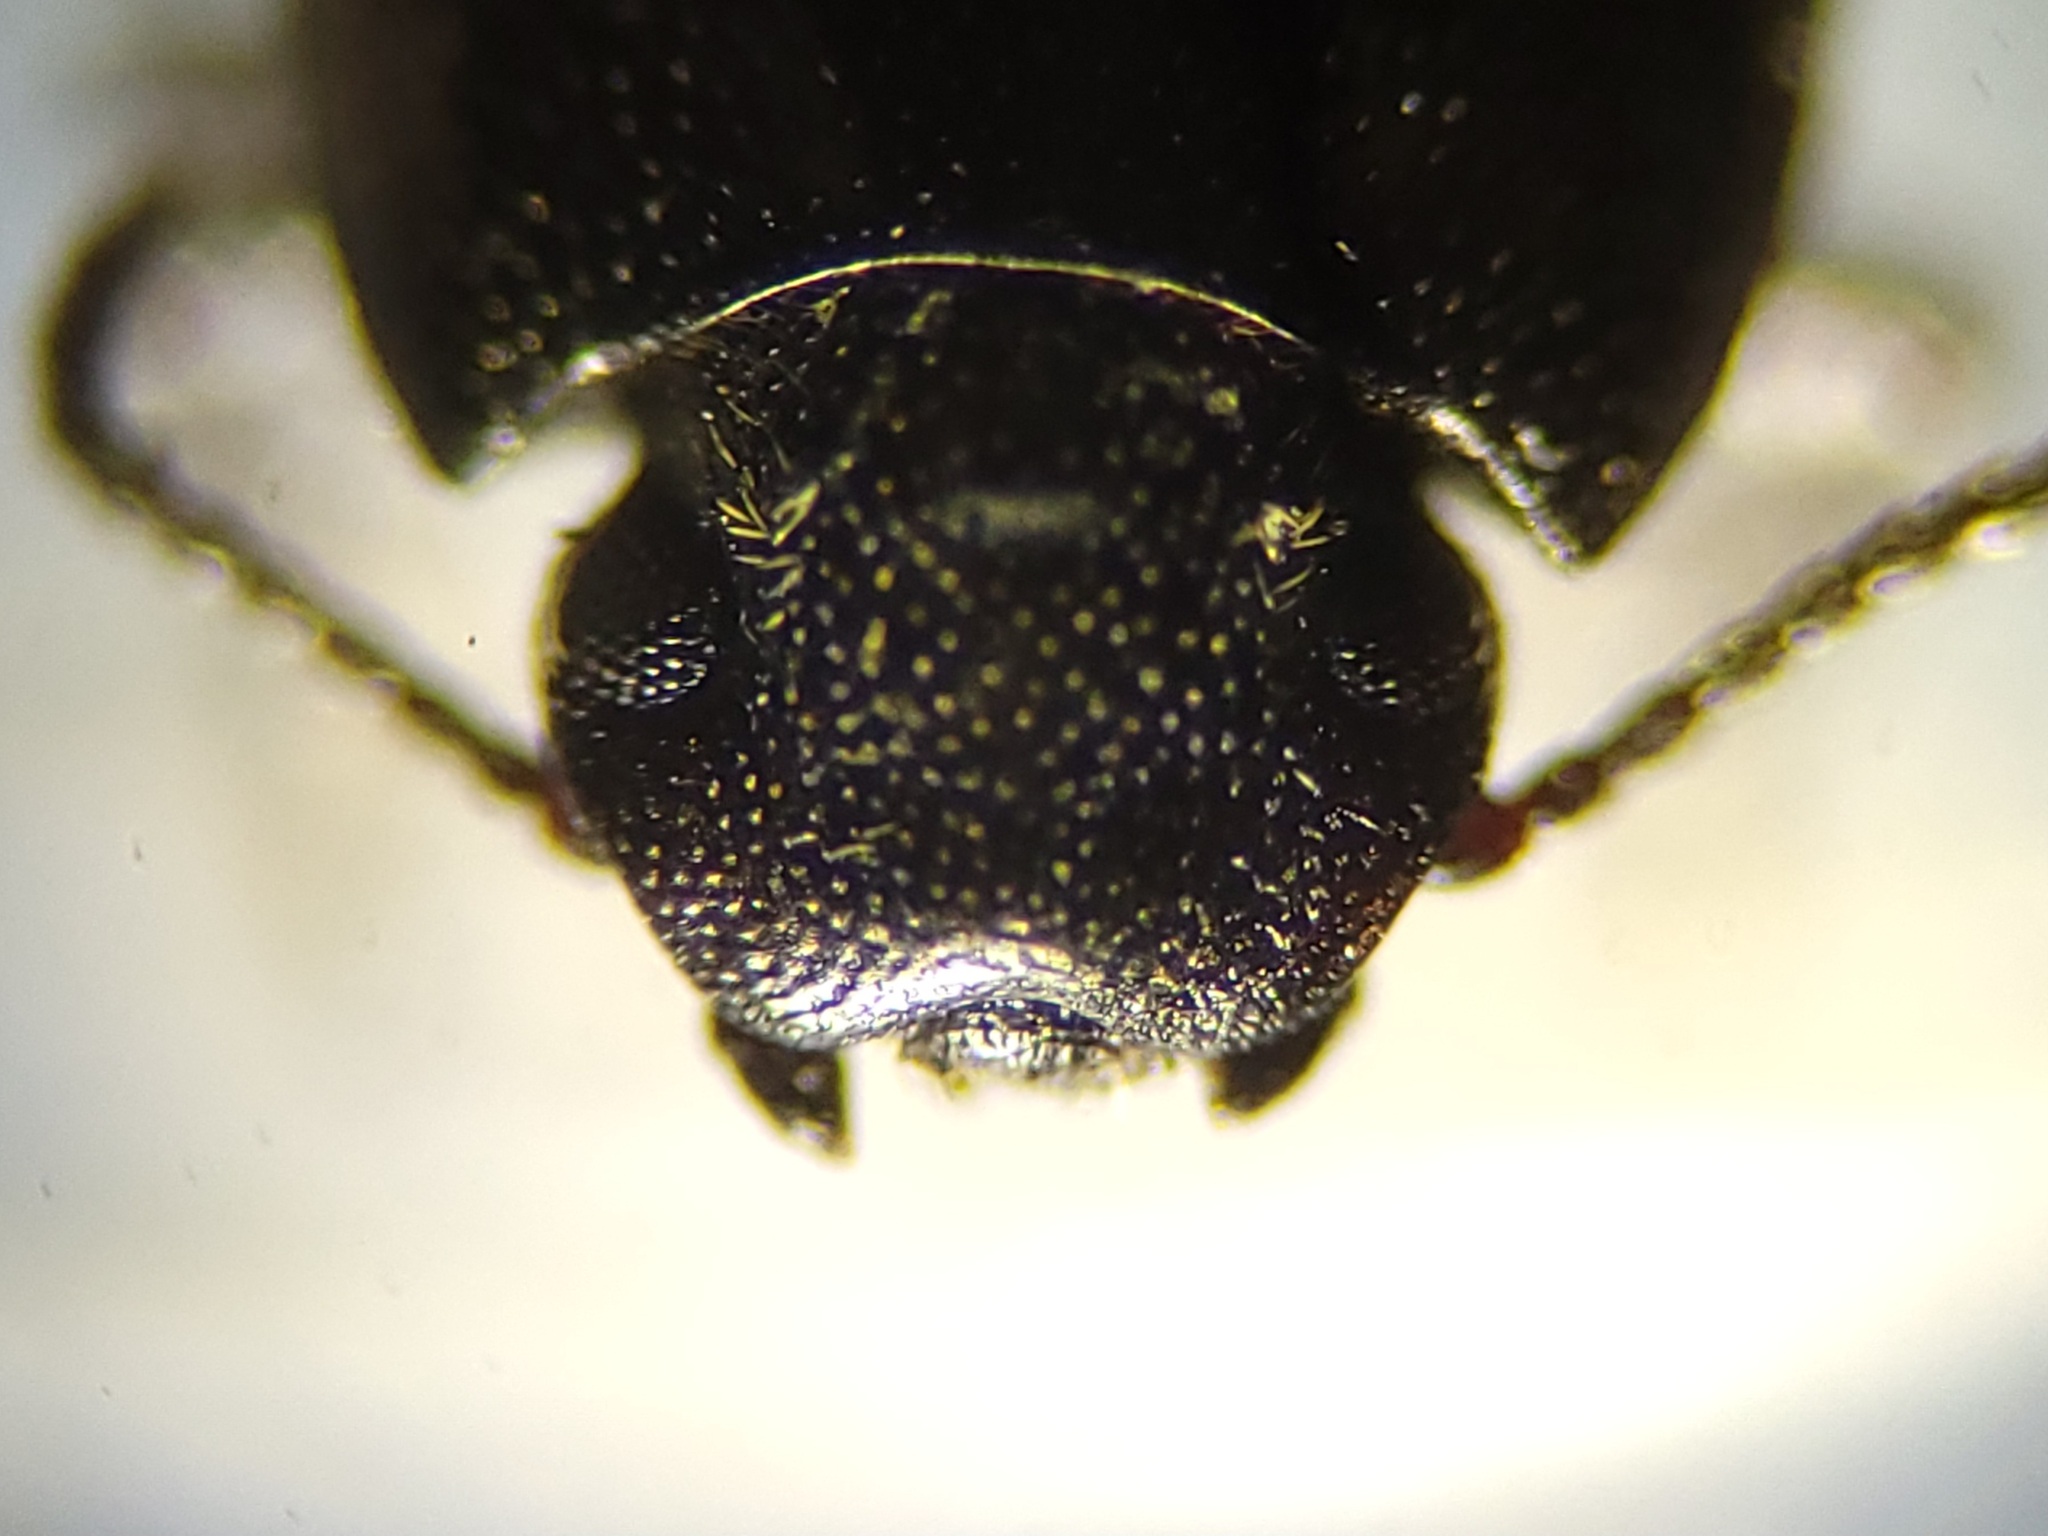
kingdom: Animalia
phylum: Arthropoda
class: Insecta
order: Coleoptera
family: Tenebrionidae
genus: Blapstinus
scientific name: Blapstinus metallicus
